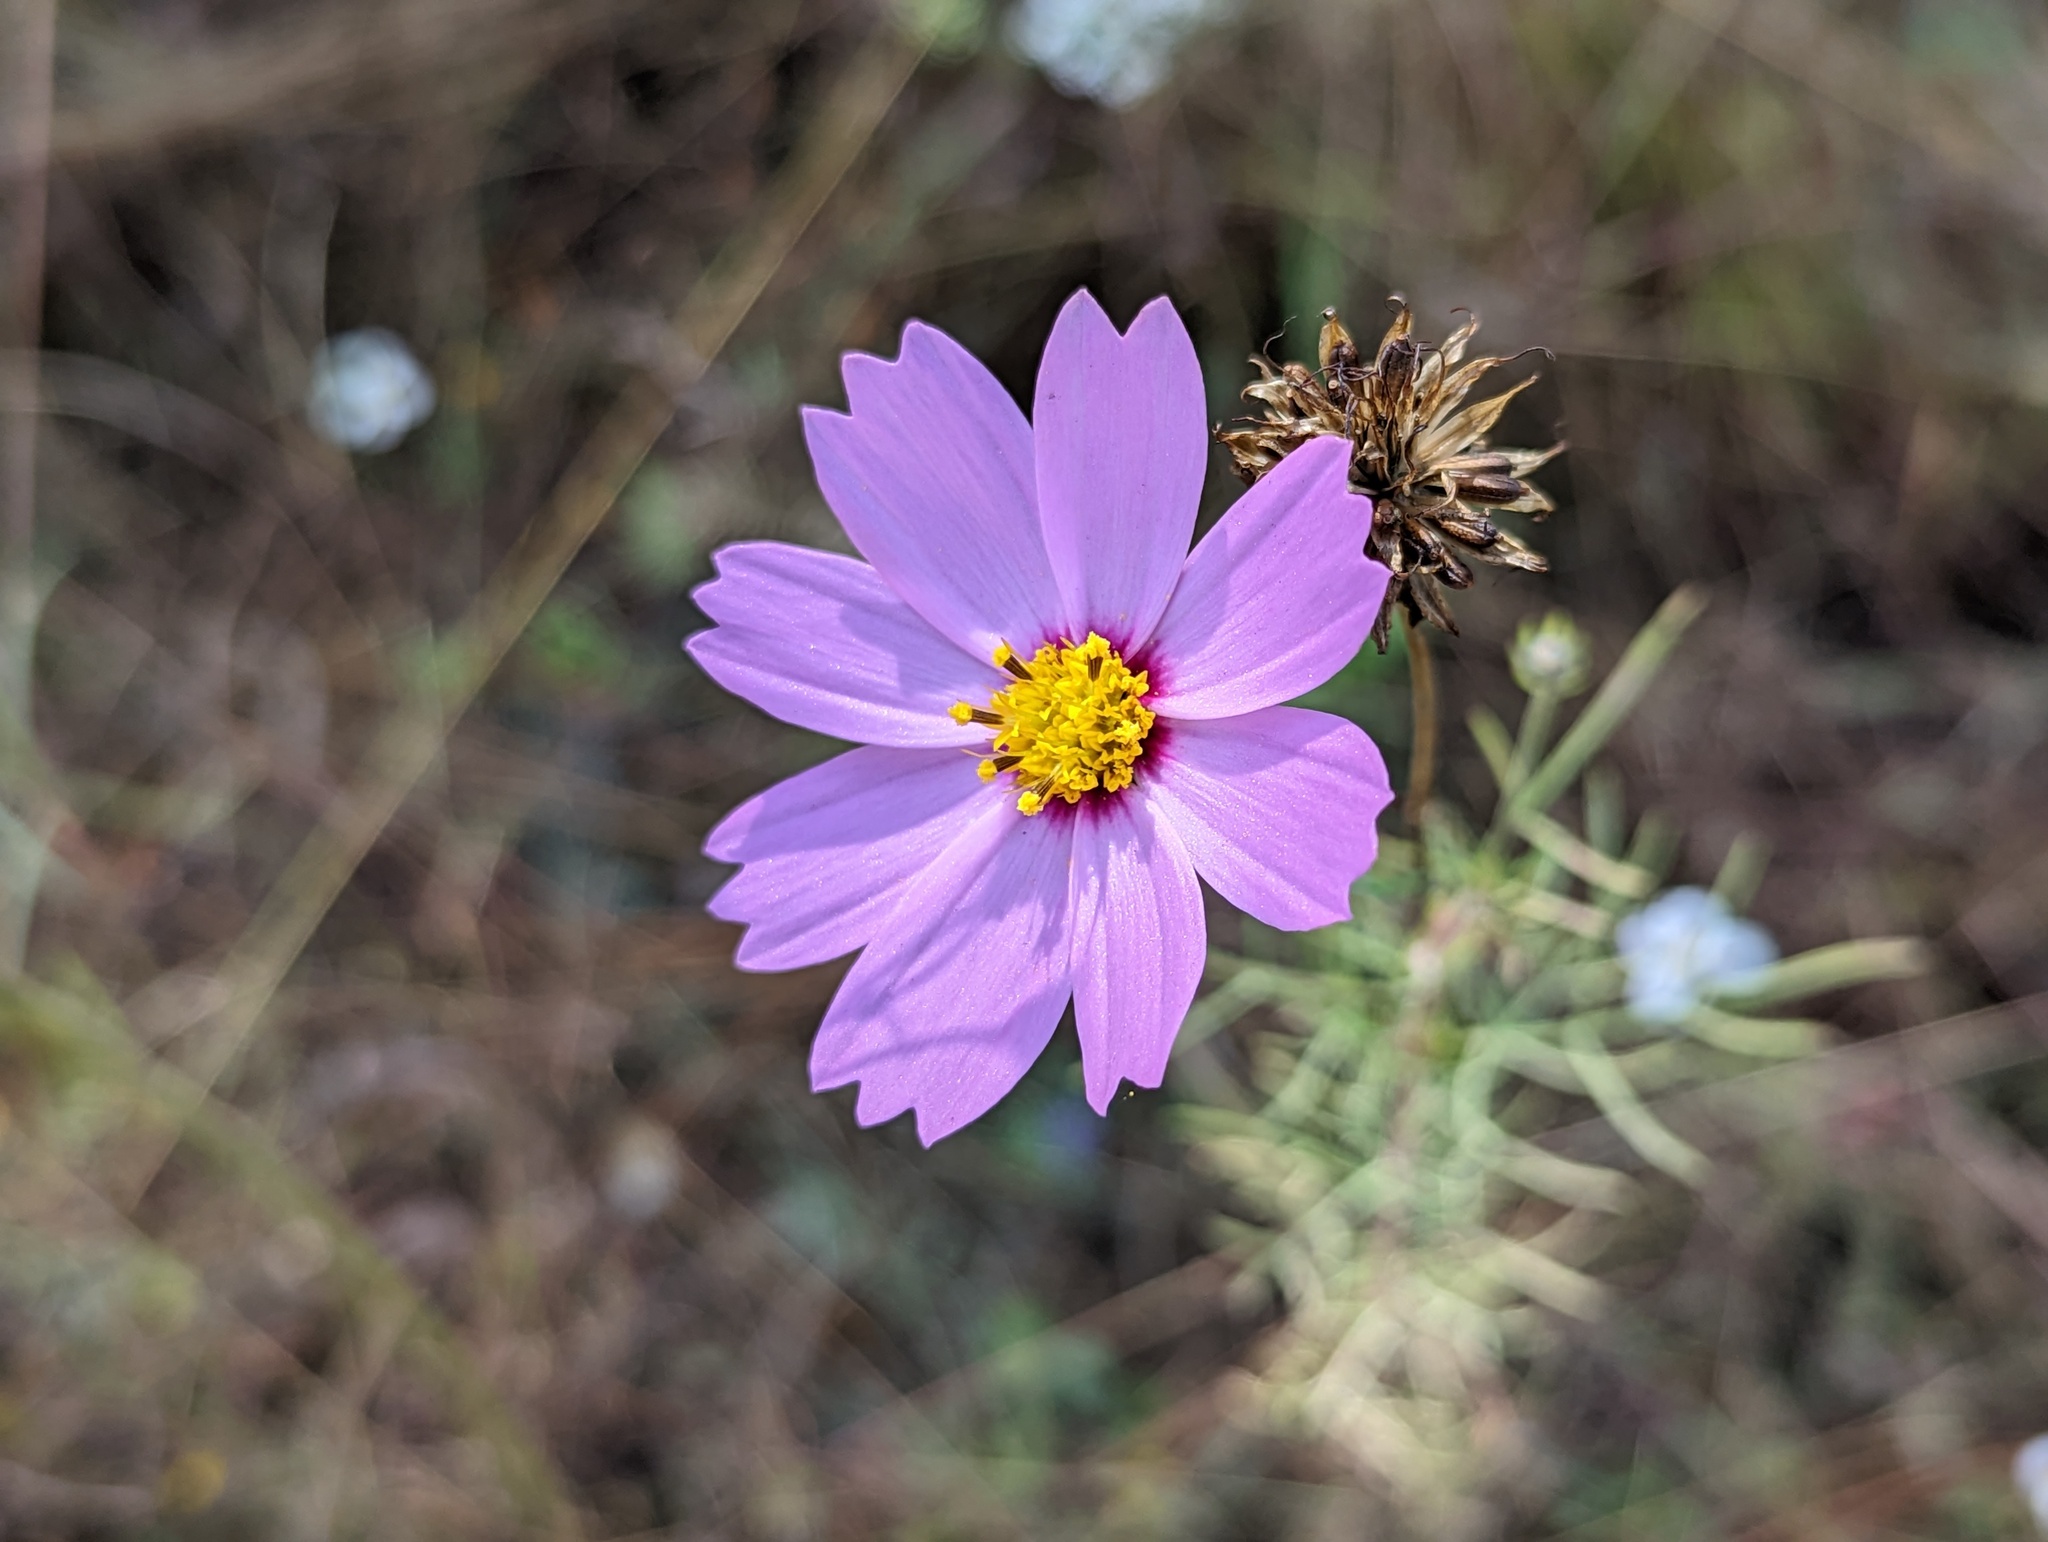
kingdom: Plantae
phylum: Tracheophyta
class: Magnoliopsida
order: Asterales
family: Asteraceae
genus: Cosmos
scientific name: Cosmos bipinnatus
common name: Garden cosmos
